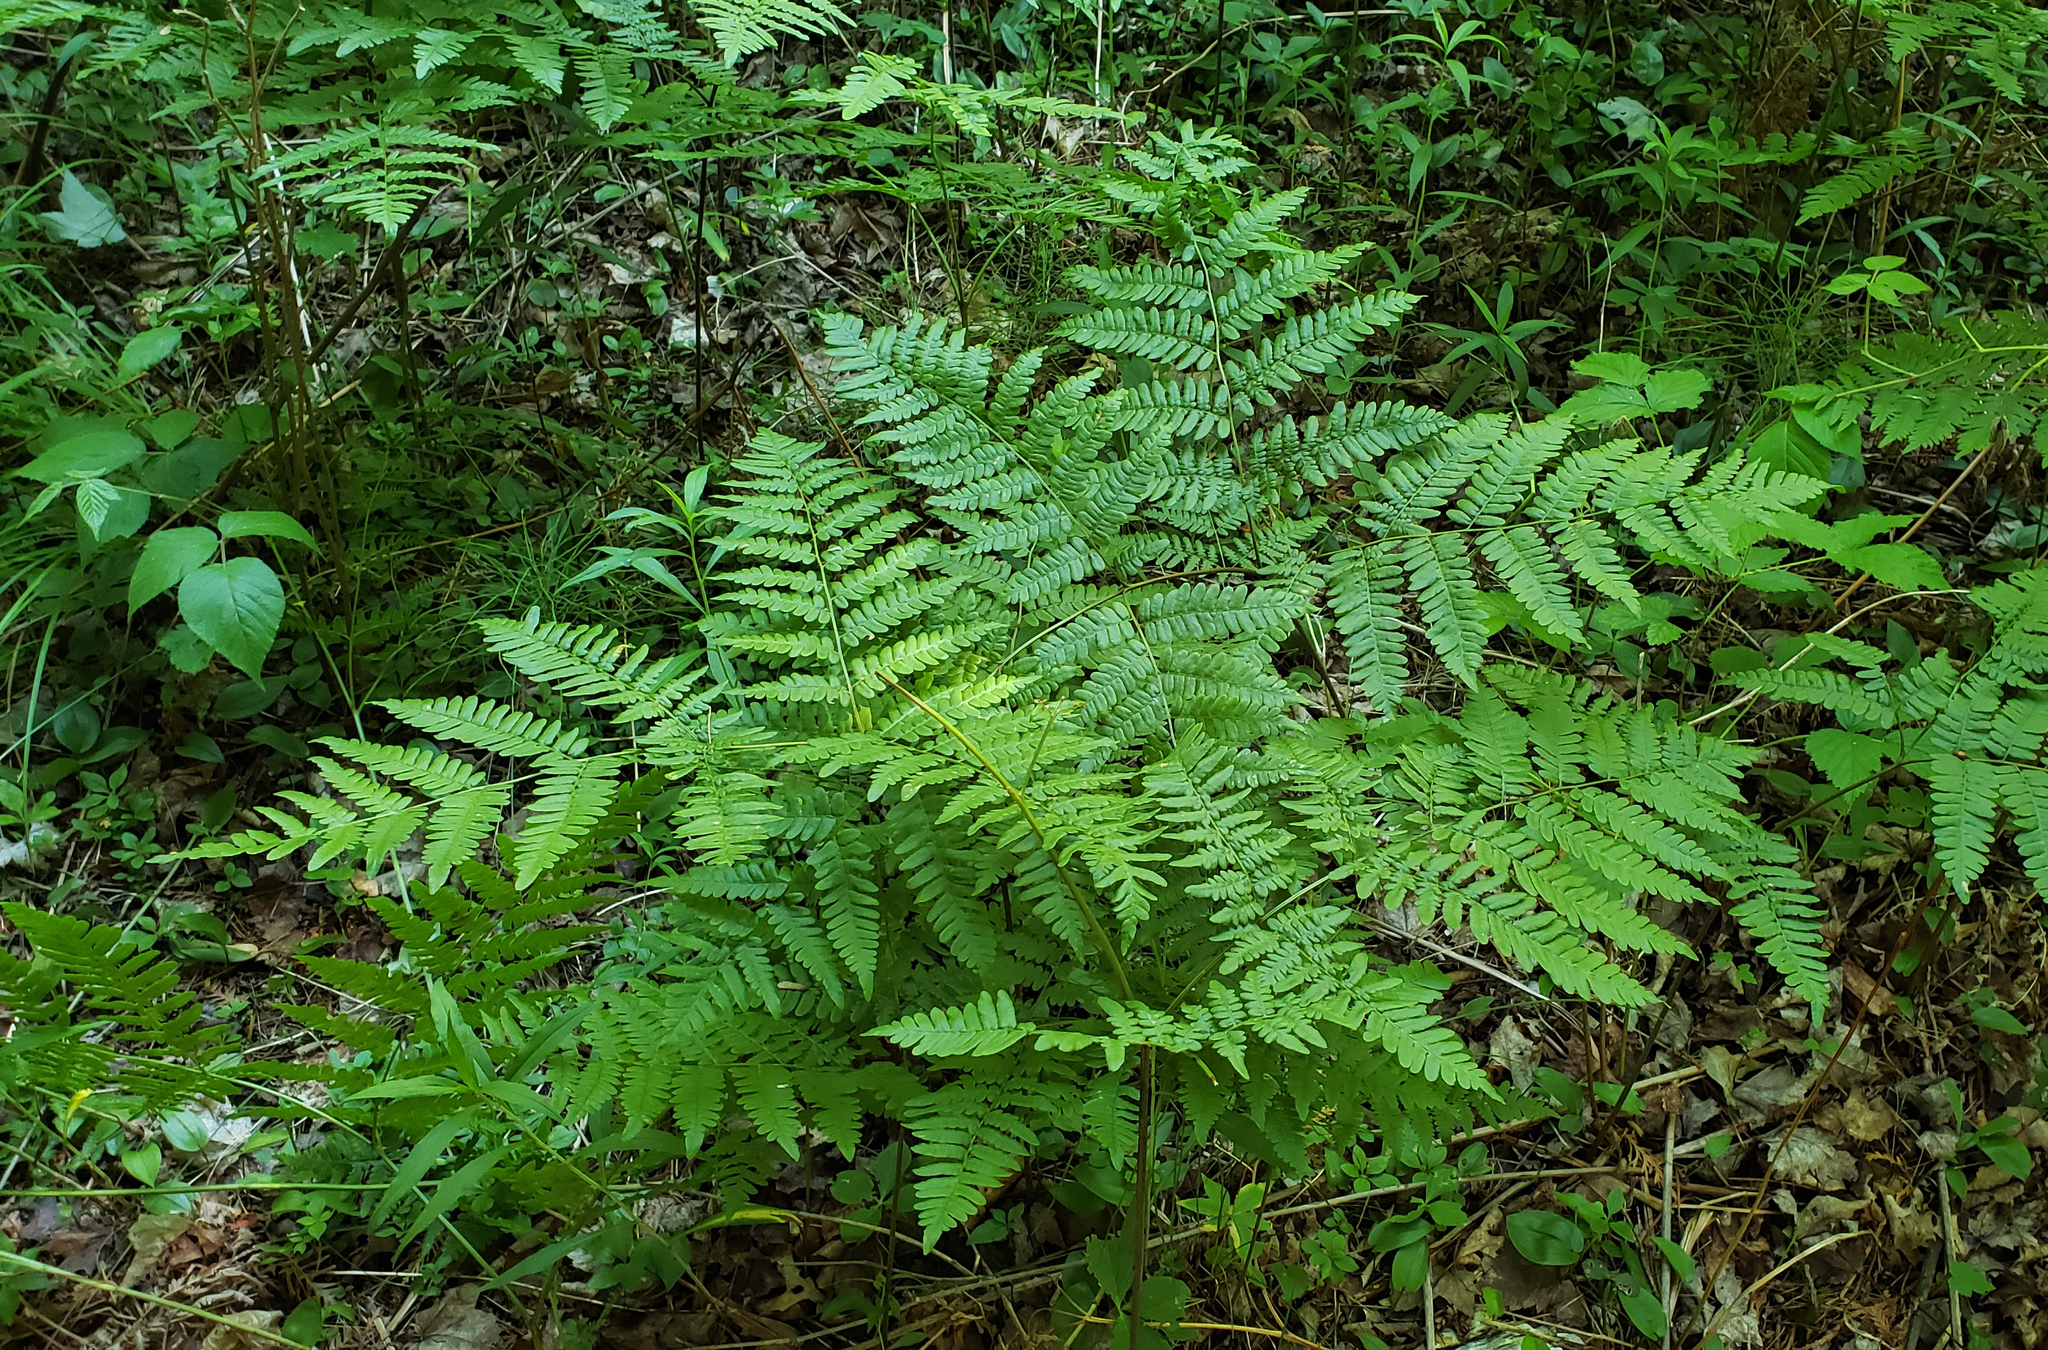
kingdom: Plantae
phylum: Tracheophyta
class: Polypodiopsida
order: Polypodiales
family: Dennstaedtiaceae
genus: Pteridium
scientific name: Pteridium aquilinum
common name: Bracken
